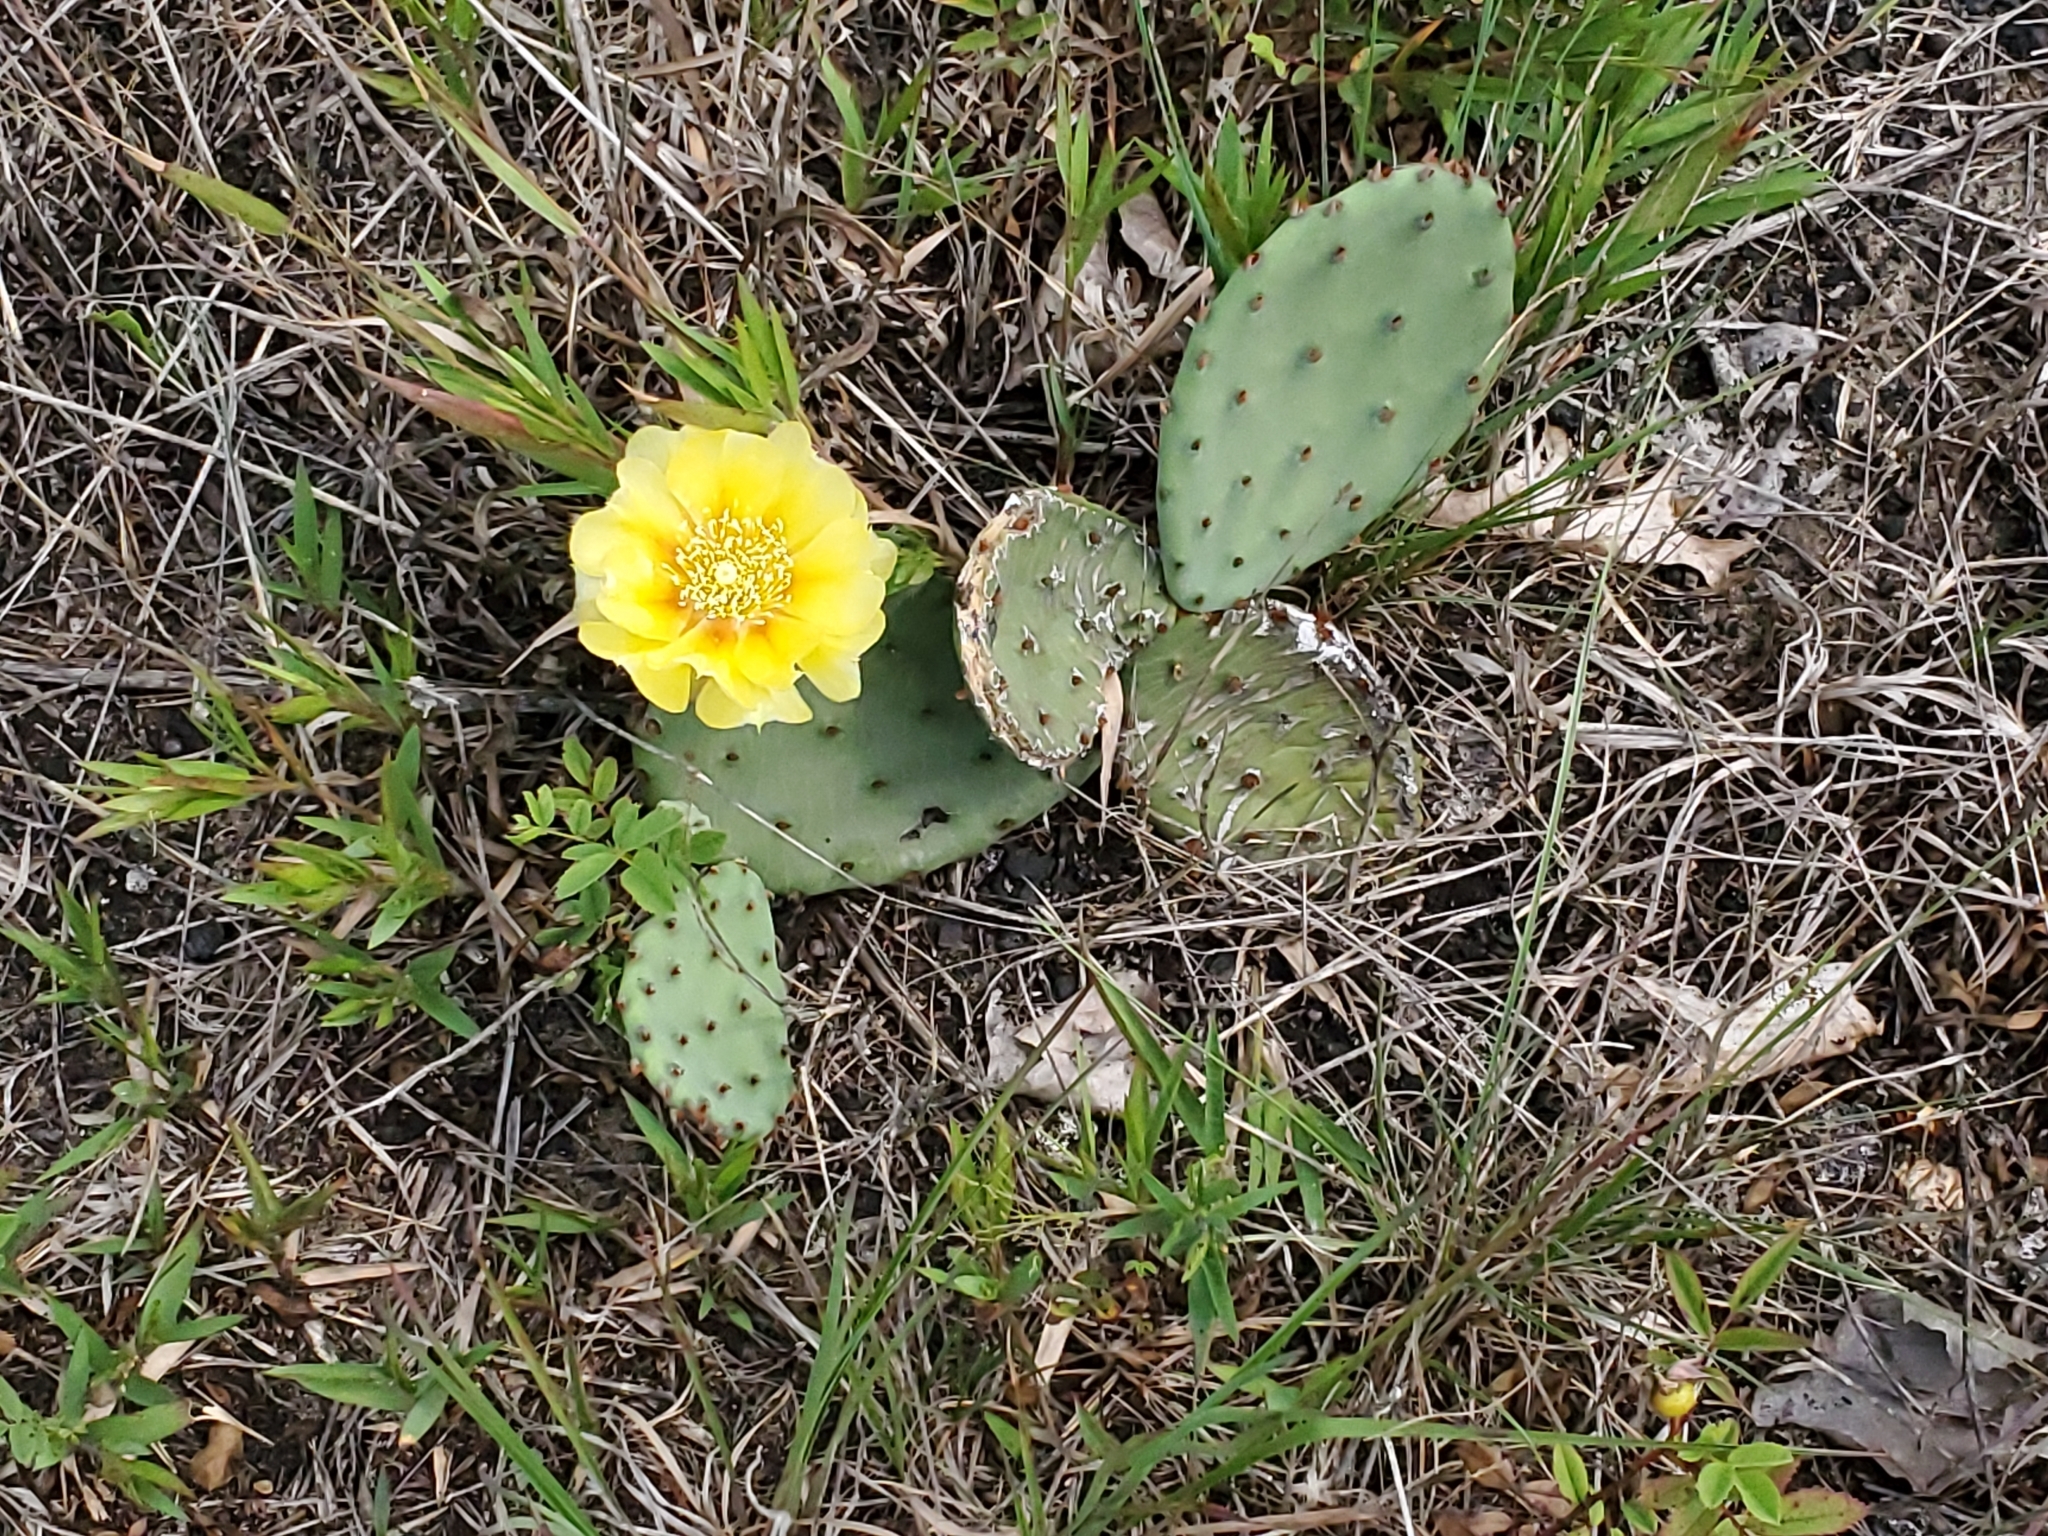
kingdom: Plantae
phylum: Tracheophyta
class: Magnoliopsida
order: Caryophyllales
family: Cactaceae
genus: Opuntia
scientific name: Opuntia humifusa
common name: Eastern prickly-pear
